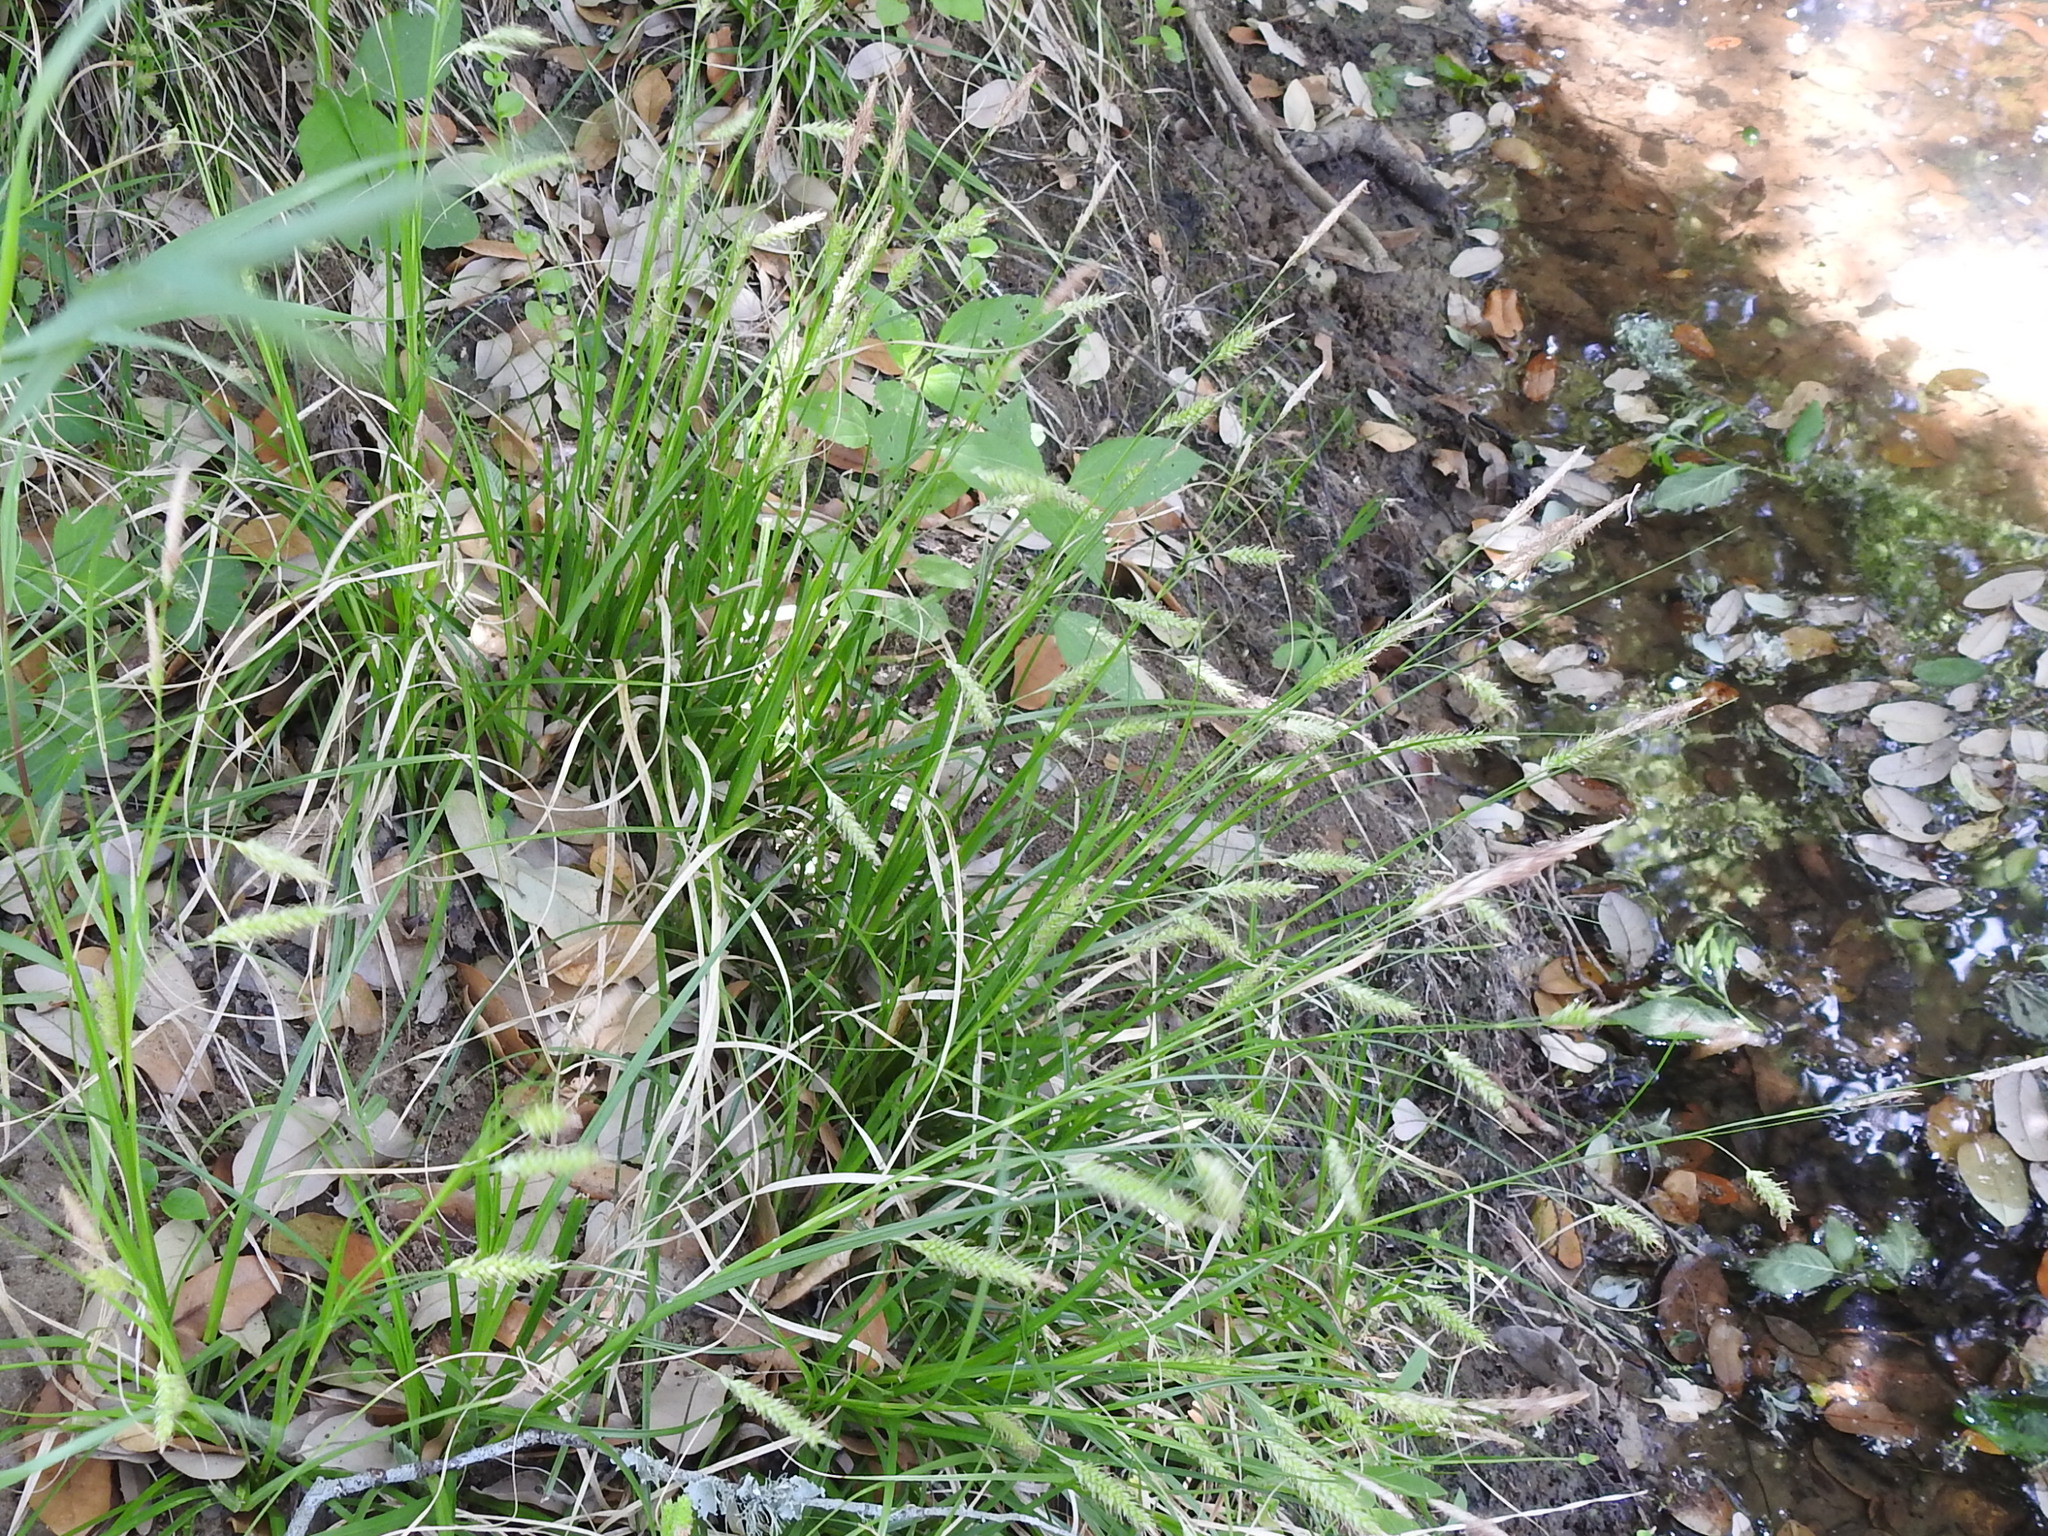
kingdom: Plantae
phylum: Tracheophyta
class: Liliopsida
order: Poales
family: Cyperaceae
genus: Carex
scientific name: Carex cherokeensis
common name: Cherokee sedge
